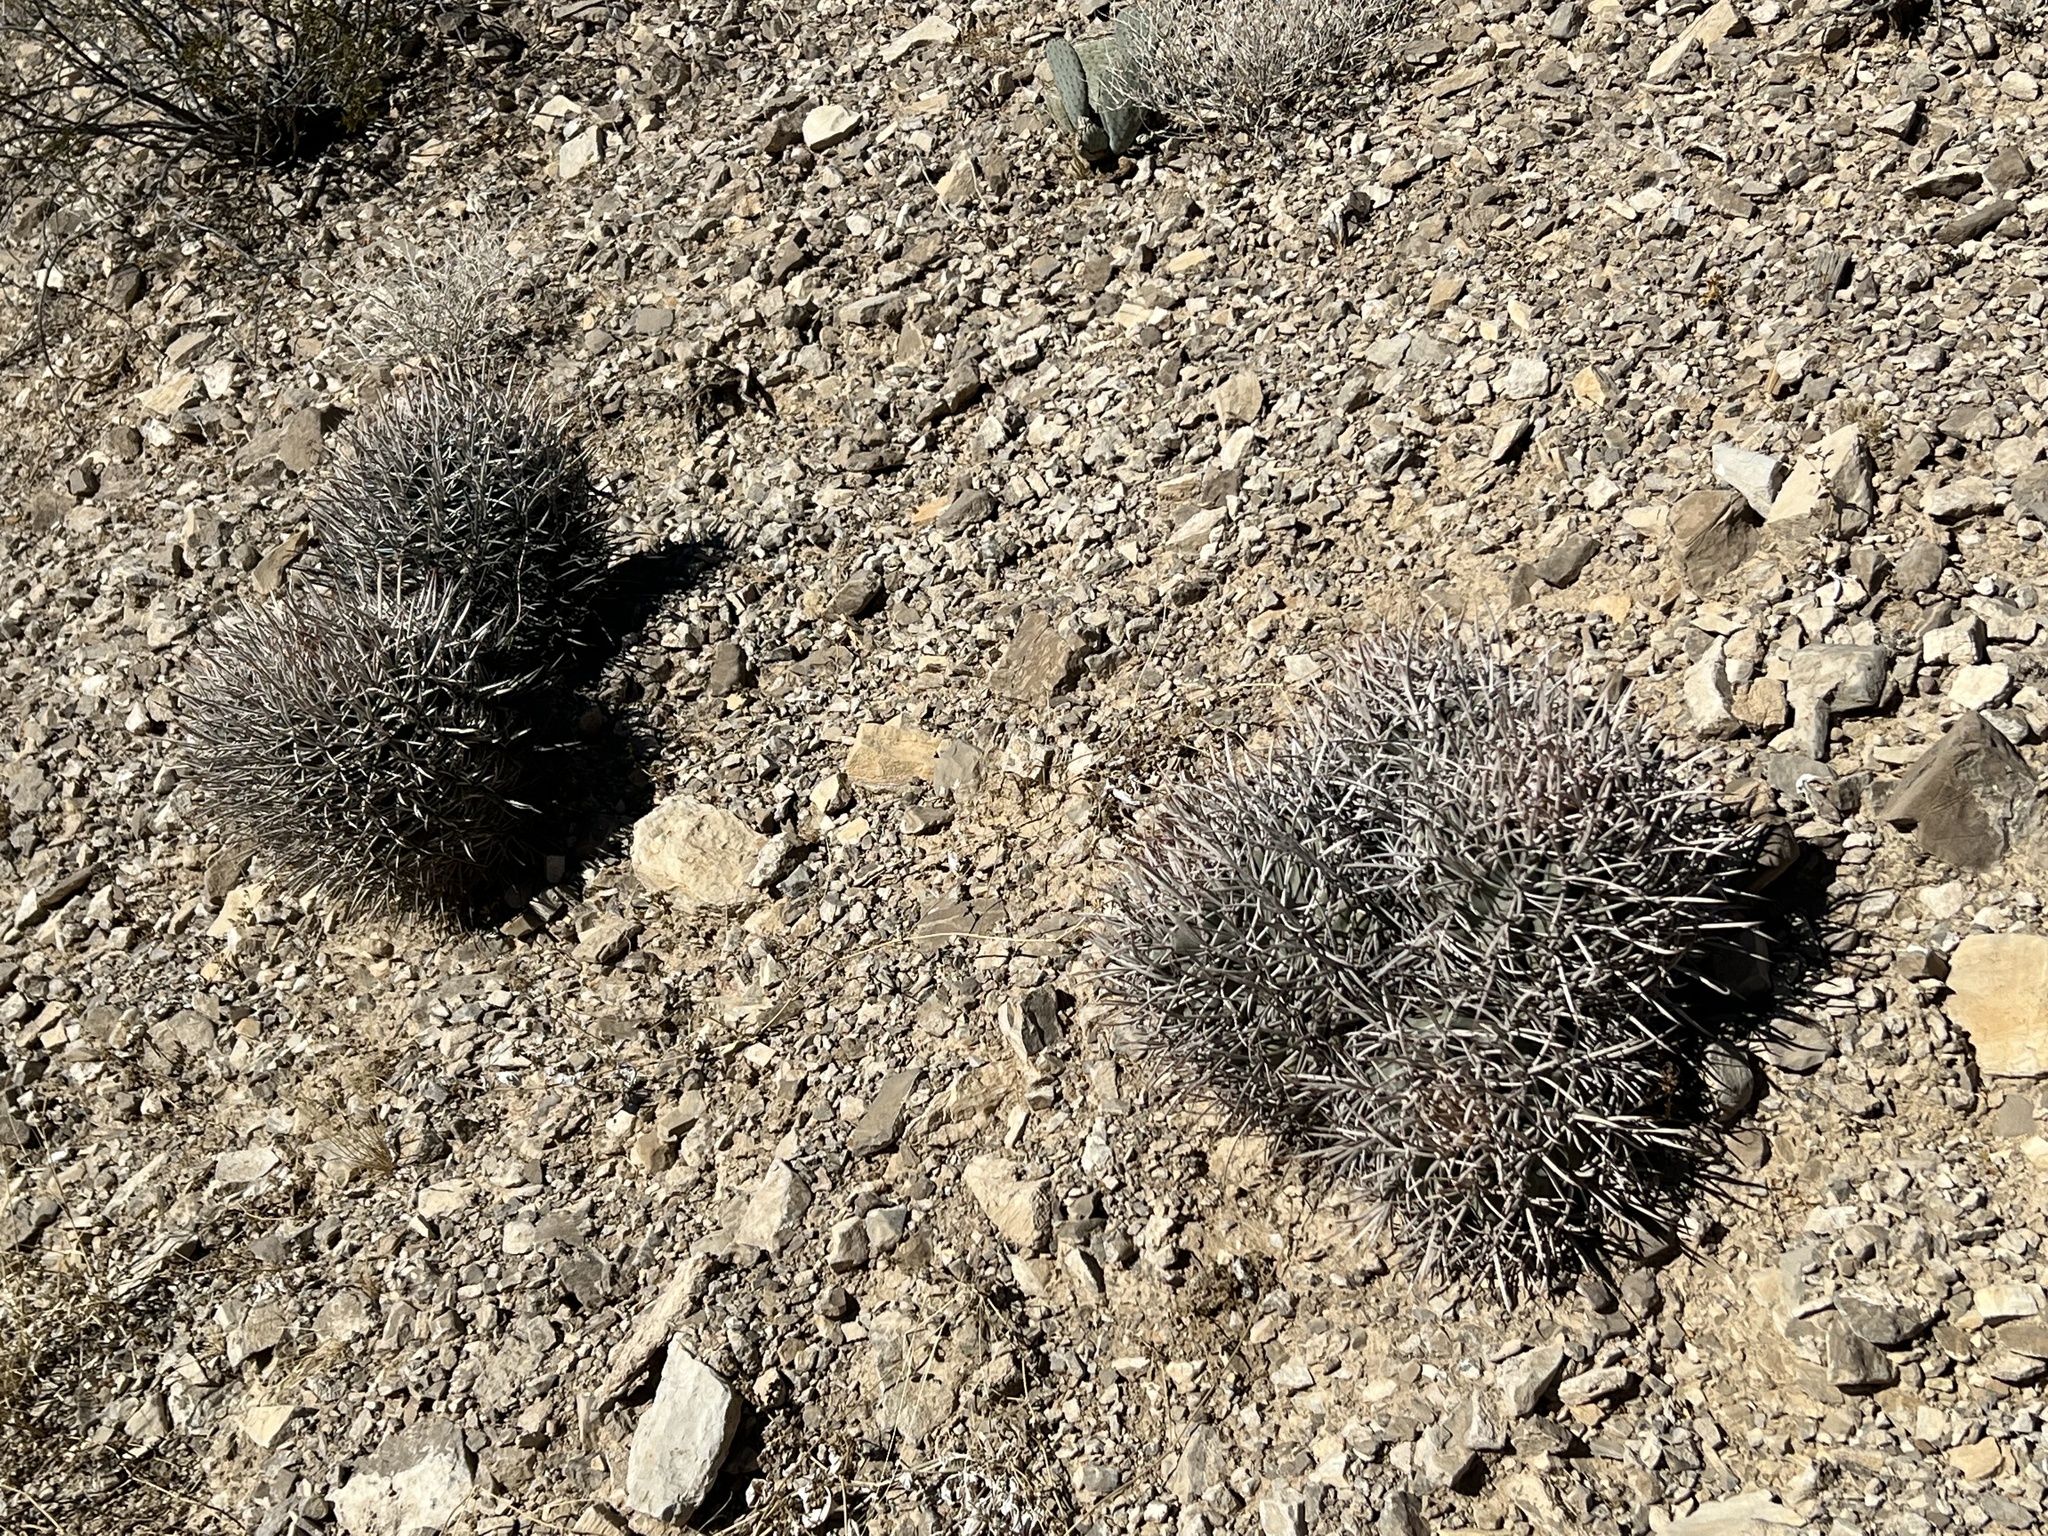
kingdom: Plantae
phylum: Tracheophyta
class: Magnoliopsida
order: Caryophyllales
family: Cactaceae
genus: Echinocactus
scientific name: Echinocactus polycephalus
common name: Cottontop cactus
